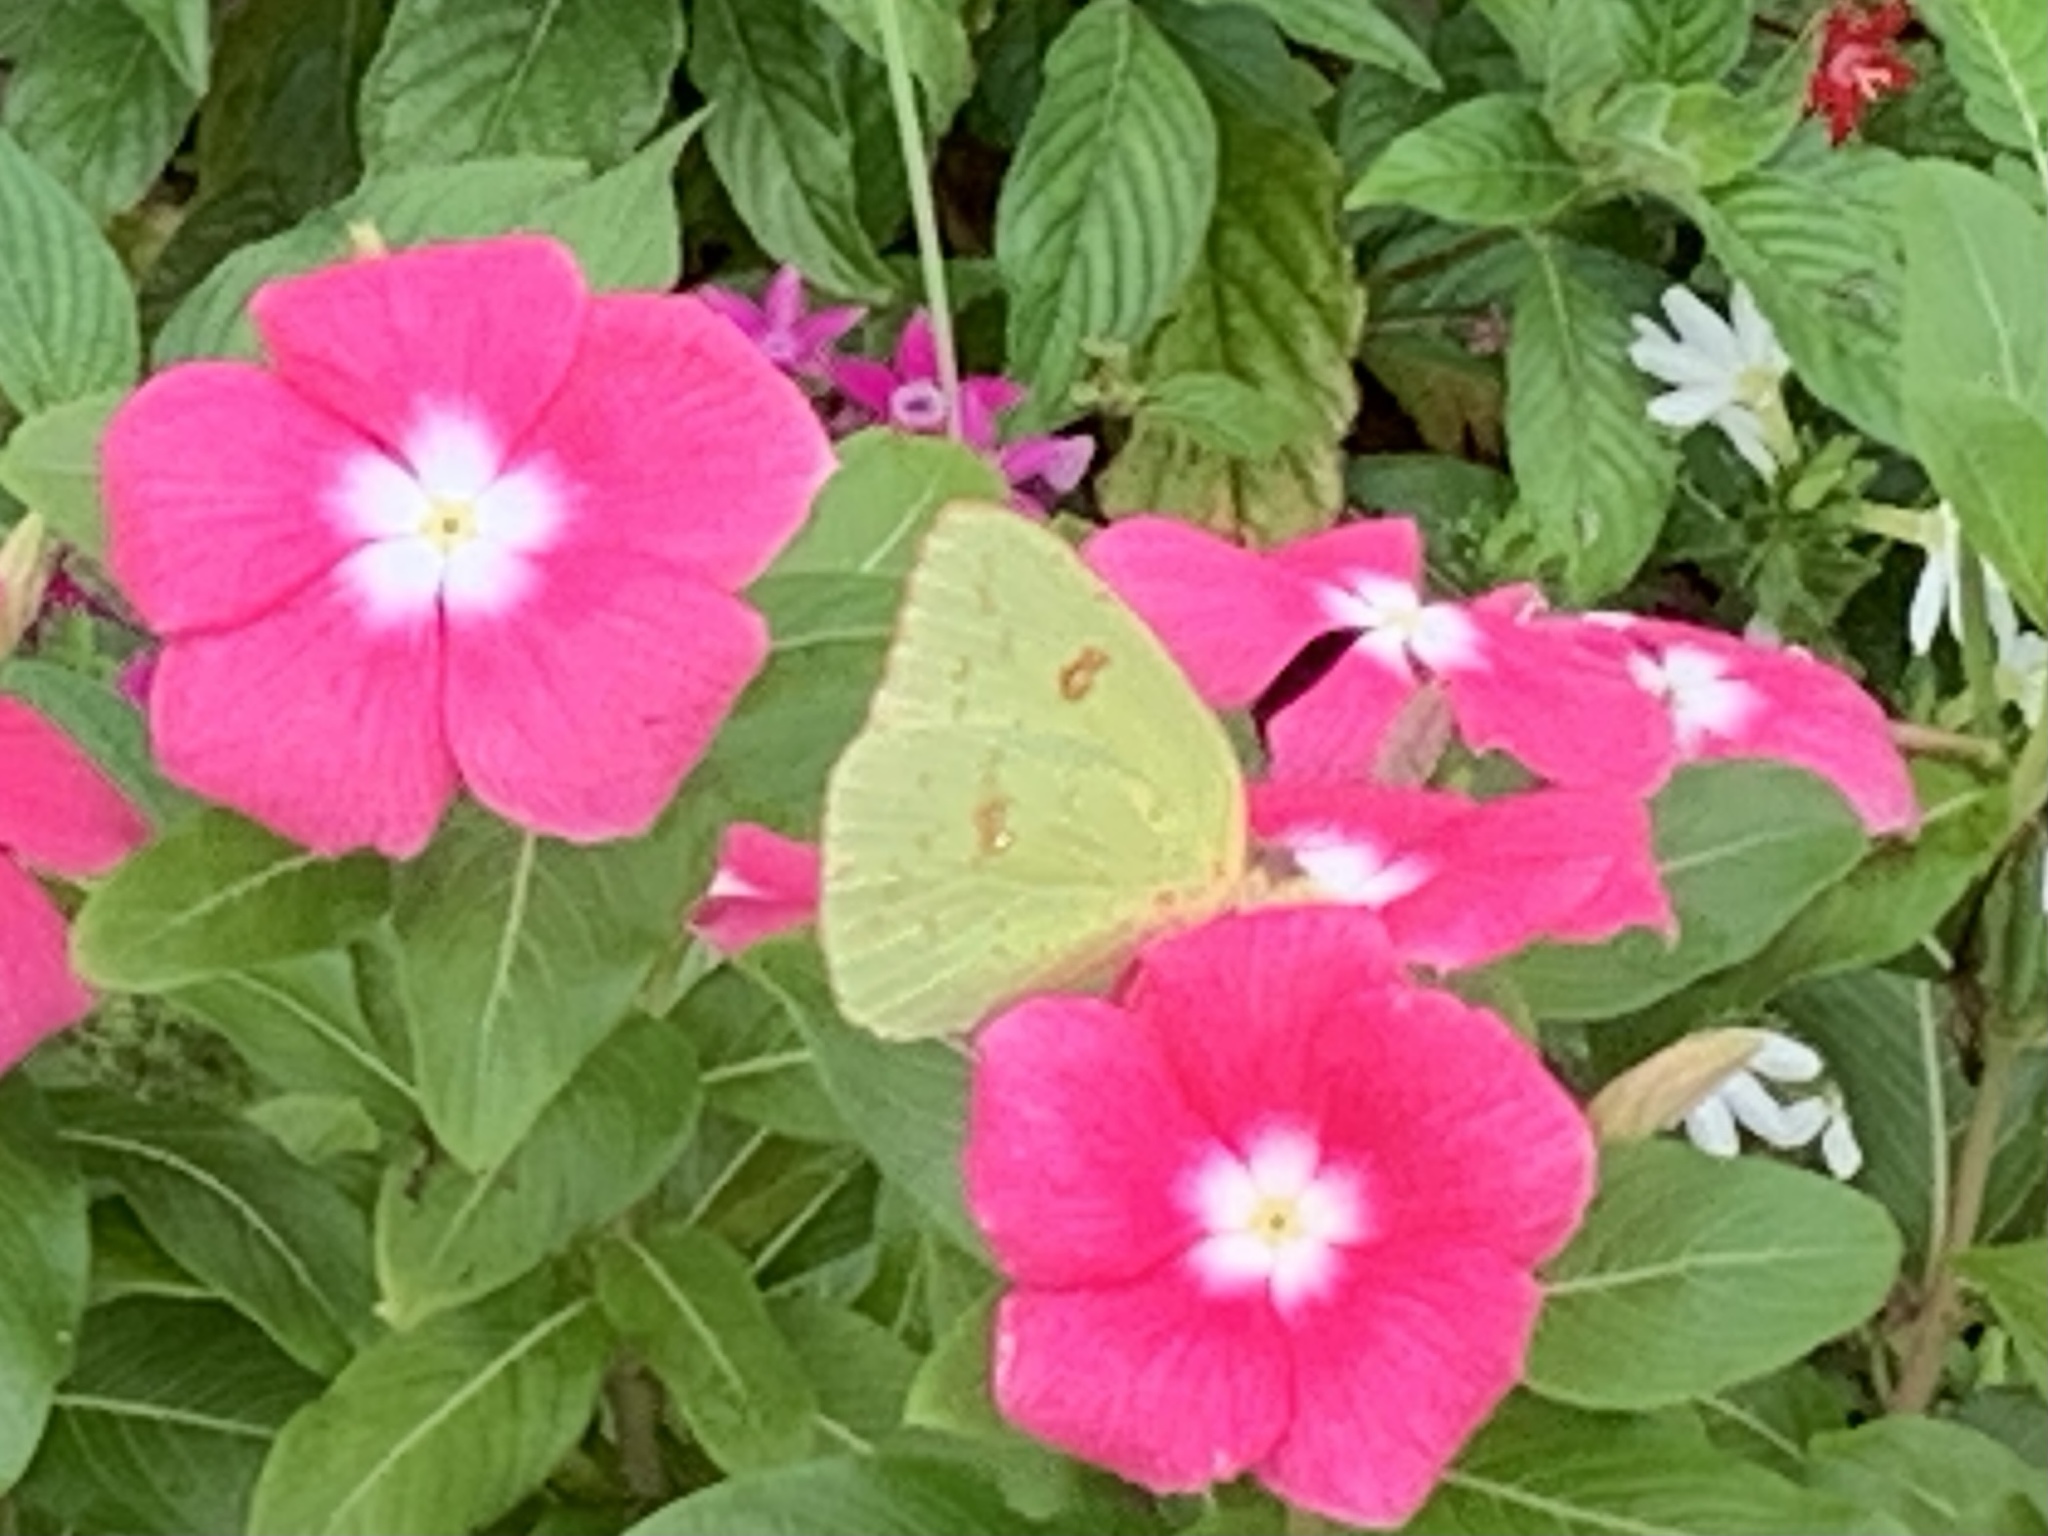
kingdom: Animalia
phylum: Arthropoda
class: Insecta
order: Lepidoptera
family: Pieridae
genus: Phoebis
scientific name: Phoebis sennae
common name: Cloudless sulphur
